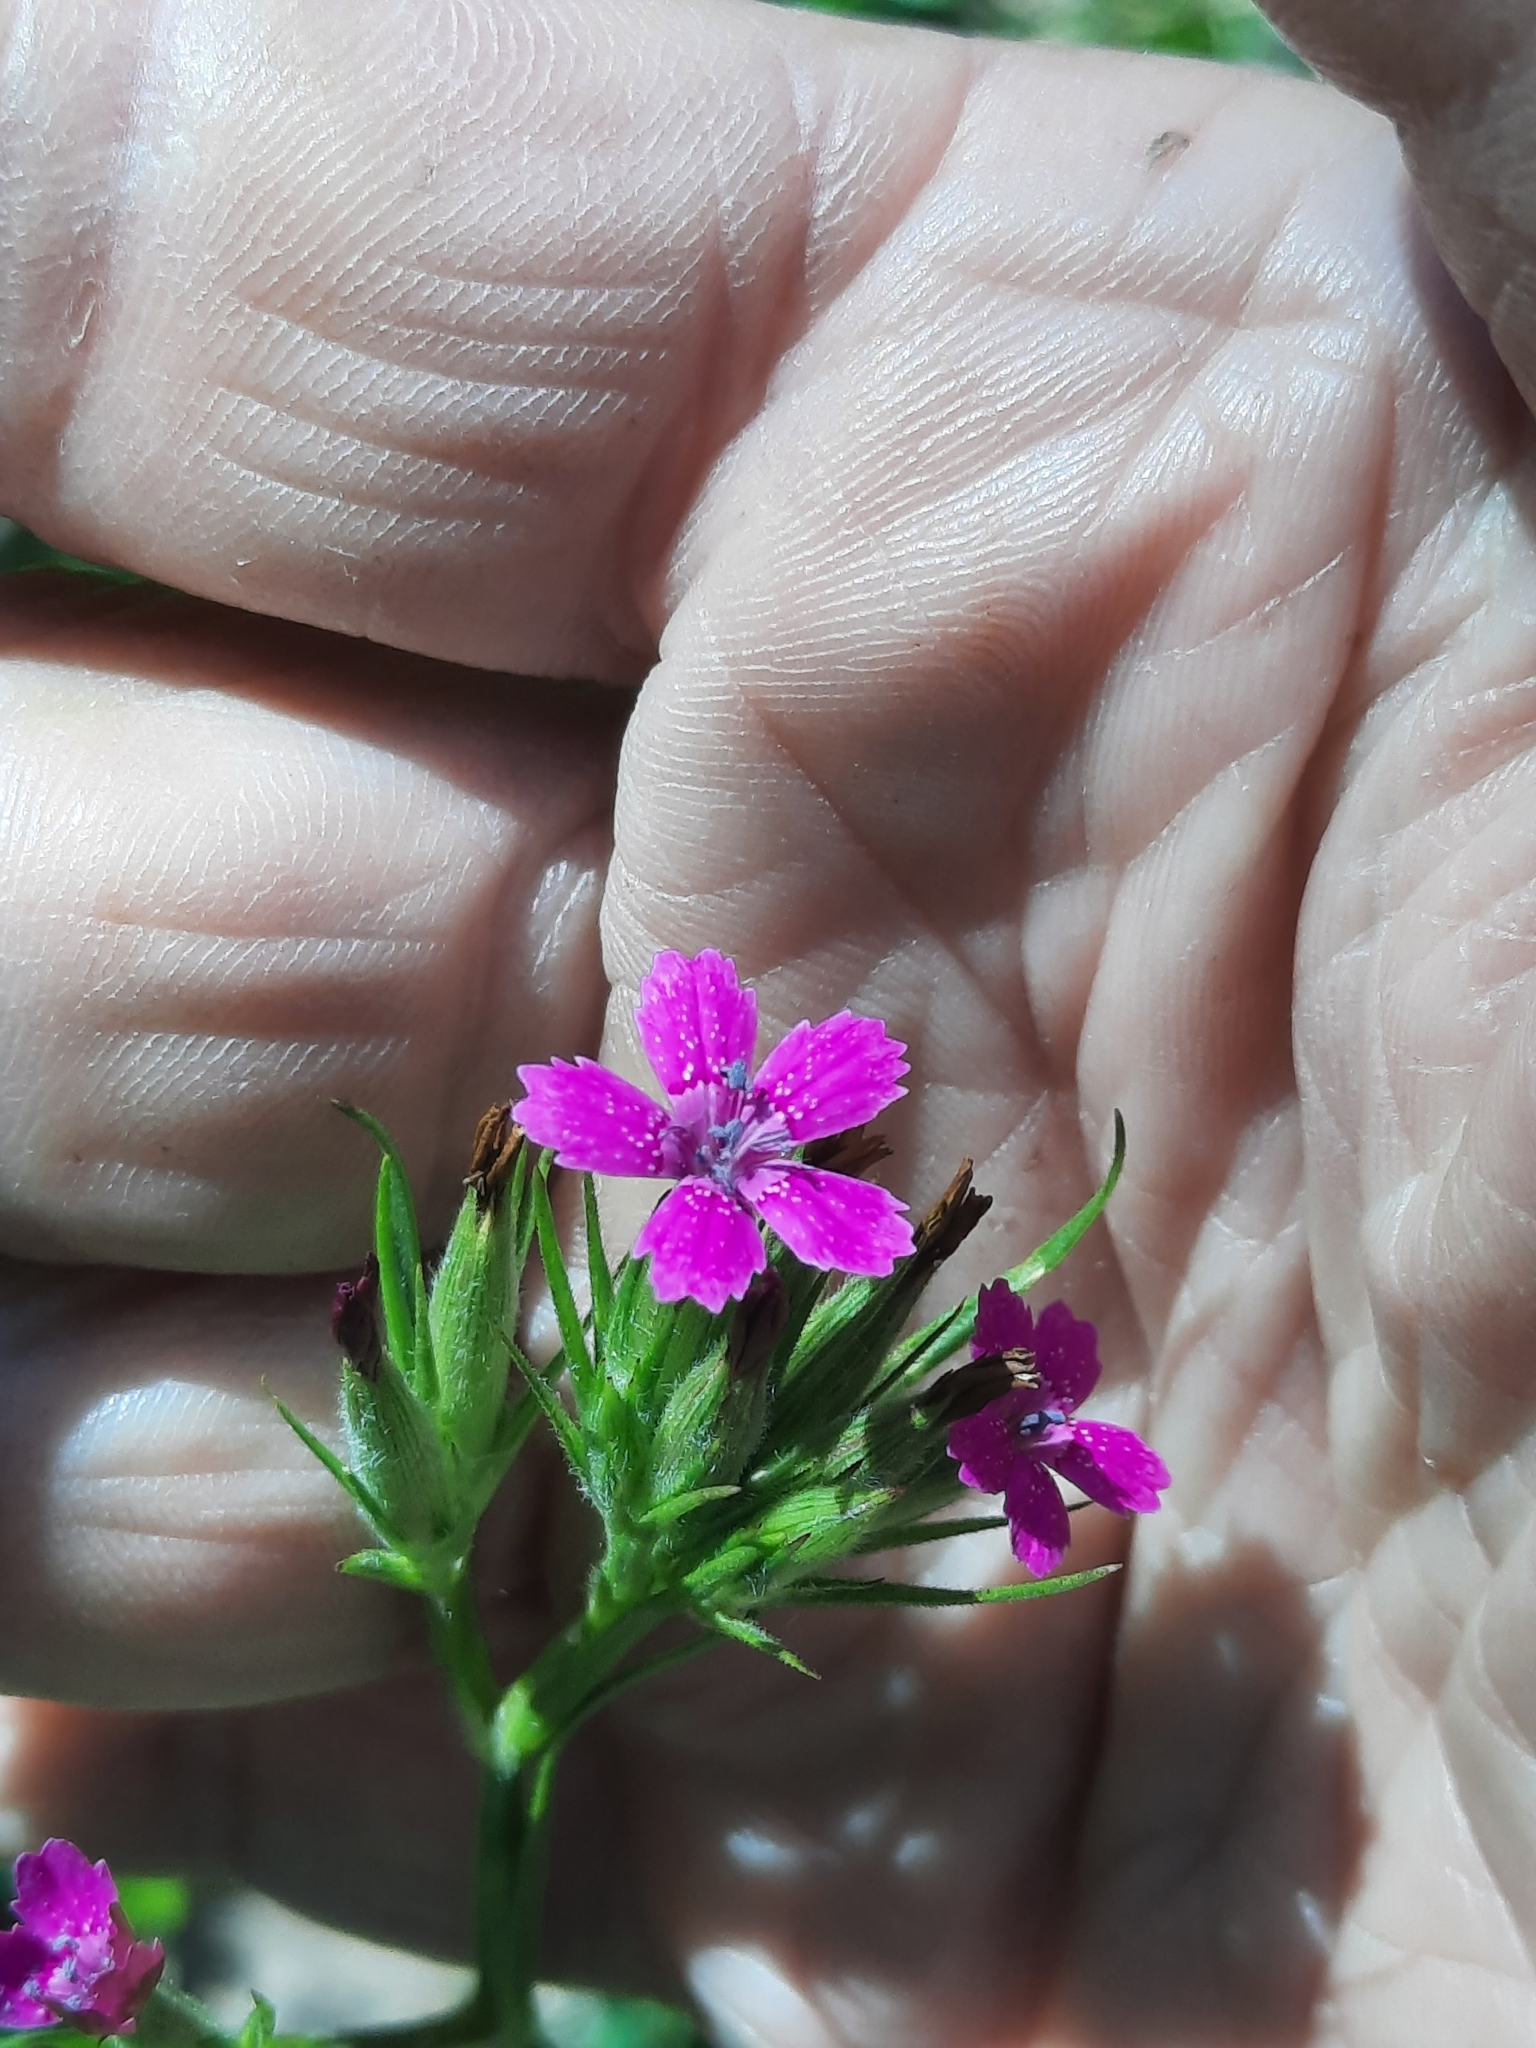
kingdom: Plantae
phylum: Tracheophyta
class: Magnoliopsida
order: Caryophyllales
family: Caryophyllaceae
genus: Dianthus
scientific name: Dianthus armeria
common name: Deptford pink
